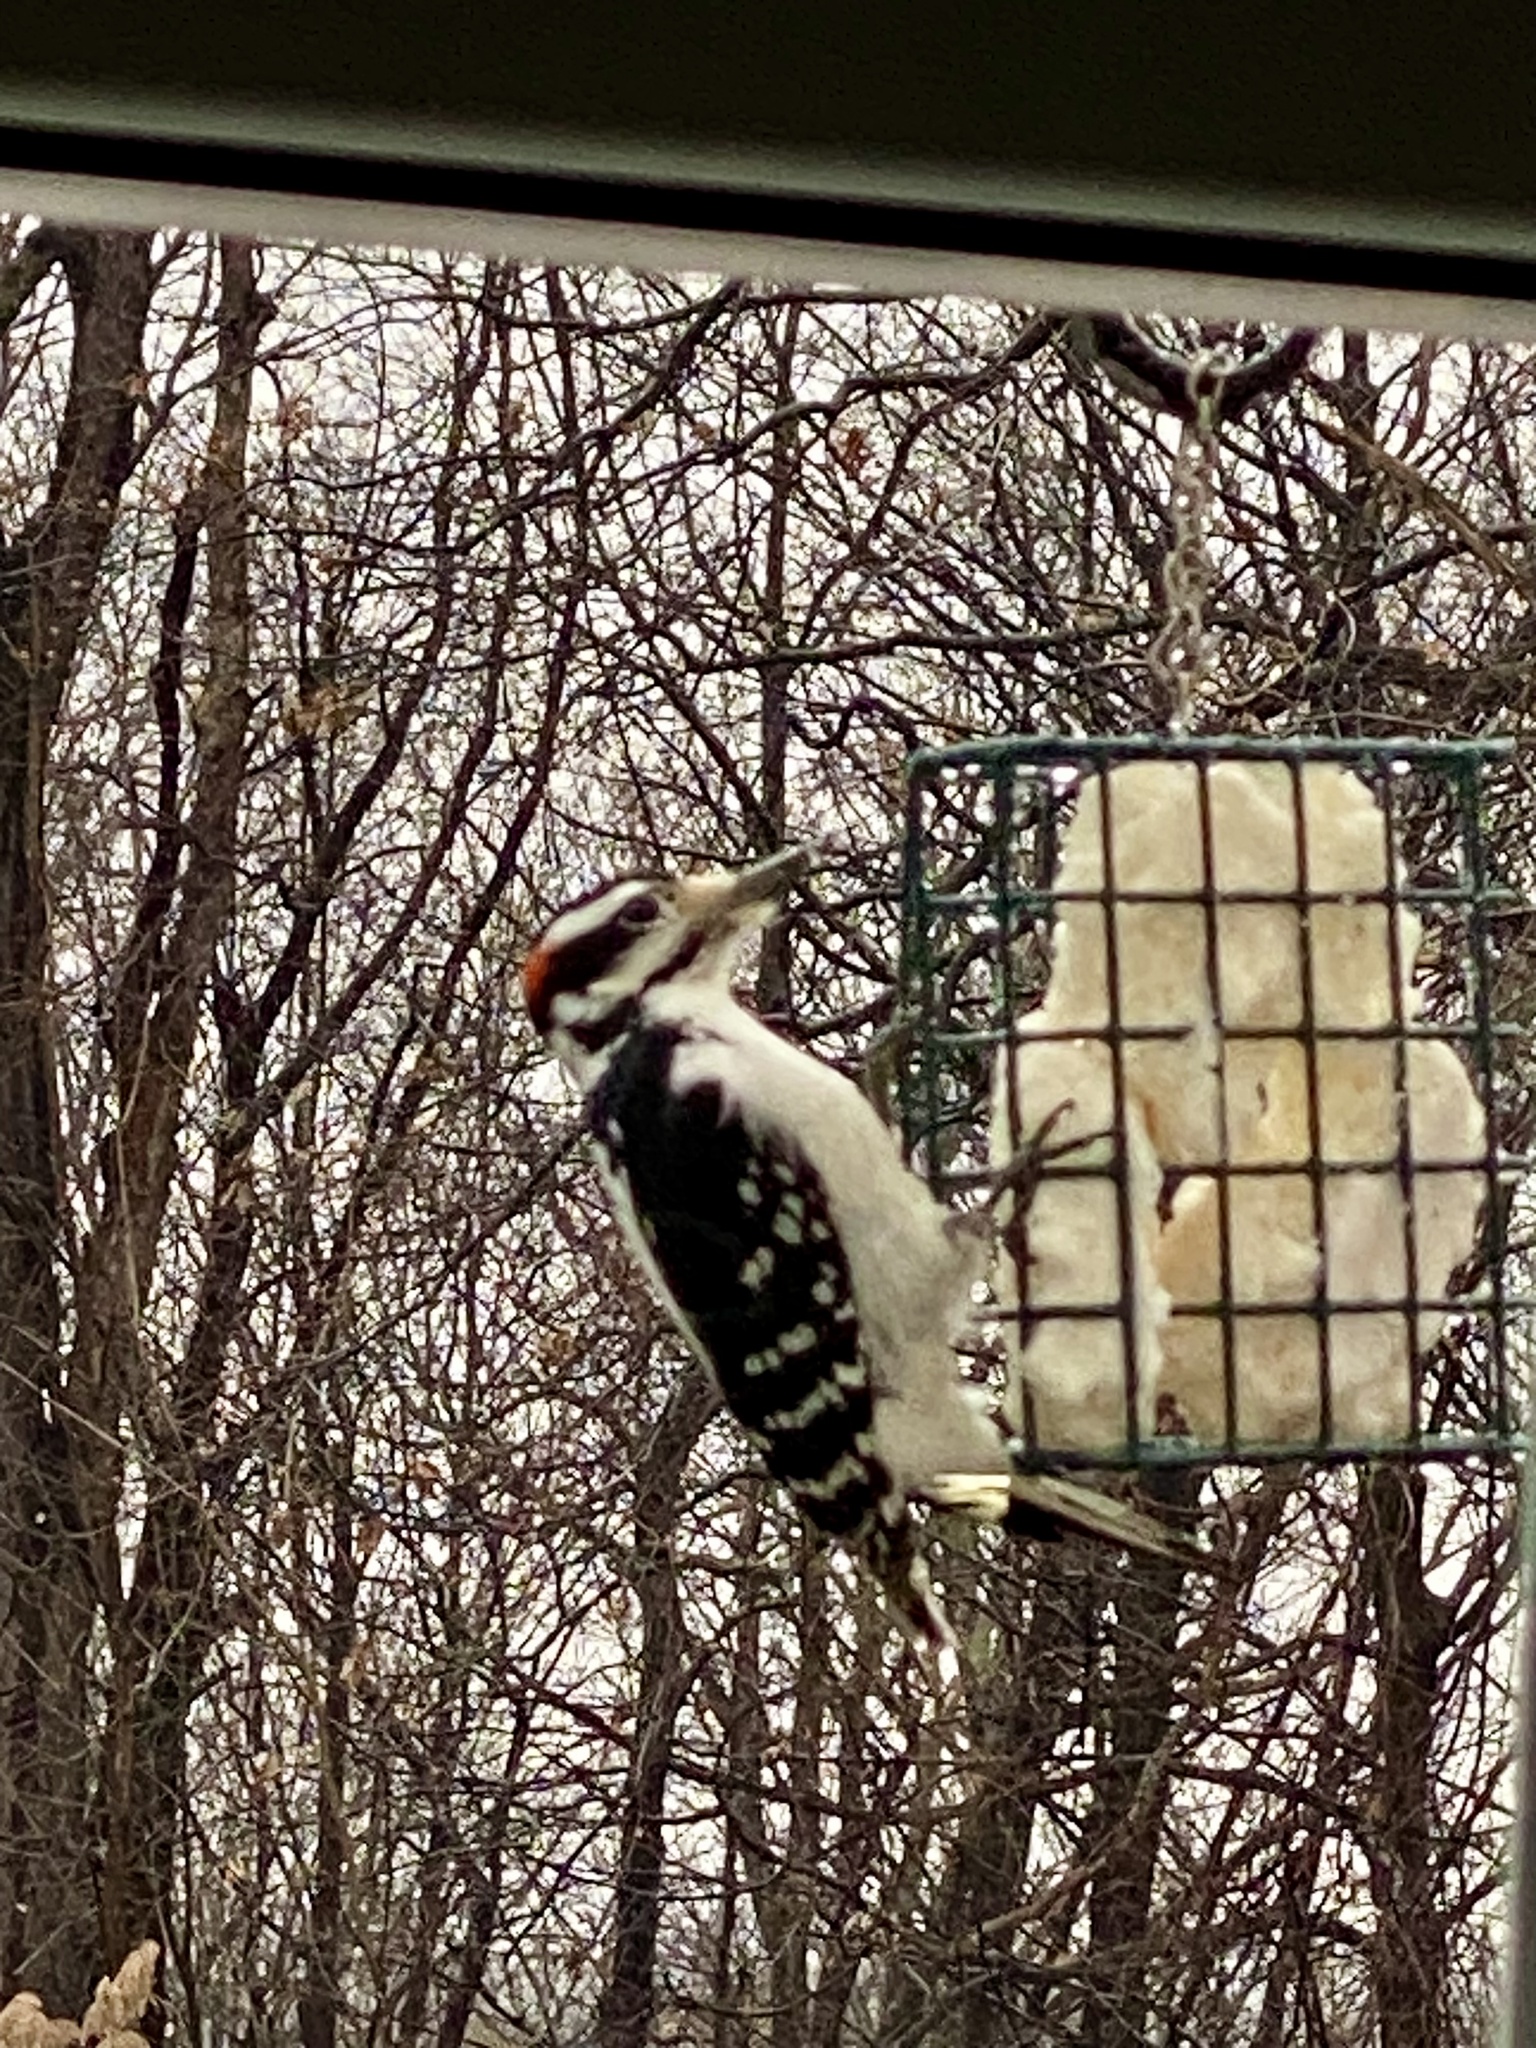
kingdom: Animalia
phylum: Chordata
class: Aves
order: Piciformes
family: Picidae
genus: Leuconotopicus
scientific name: Leuconotopicus villosus
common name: Hairy woodpecker
